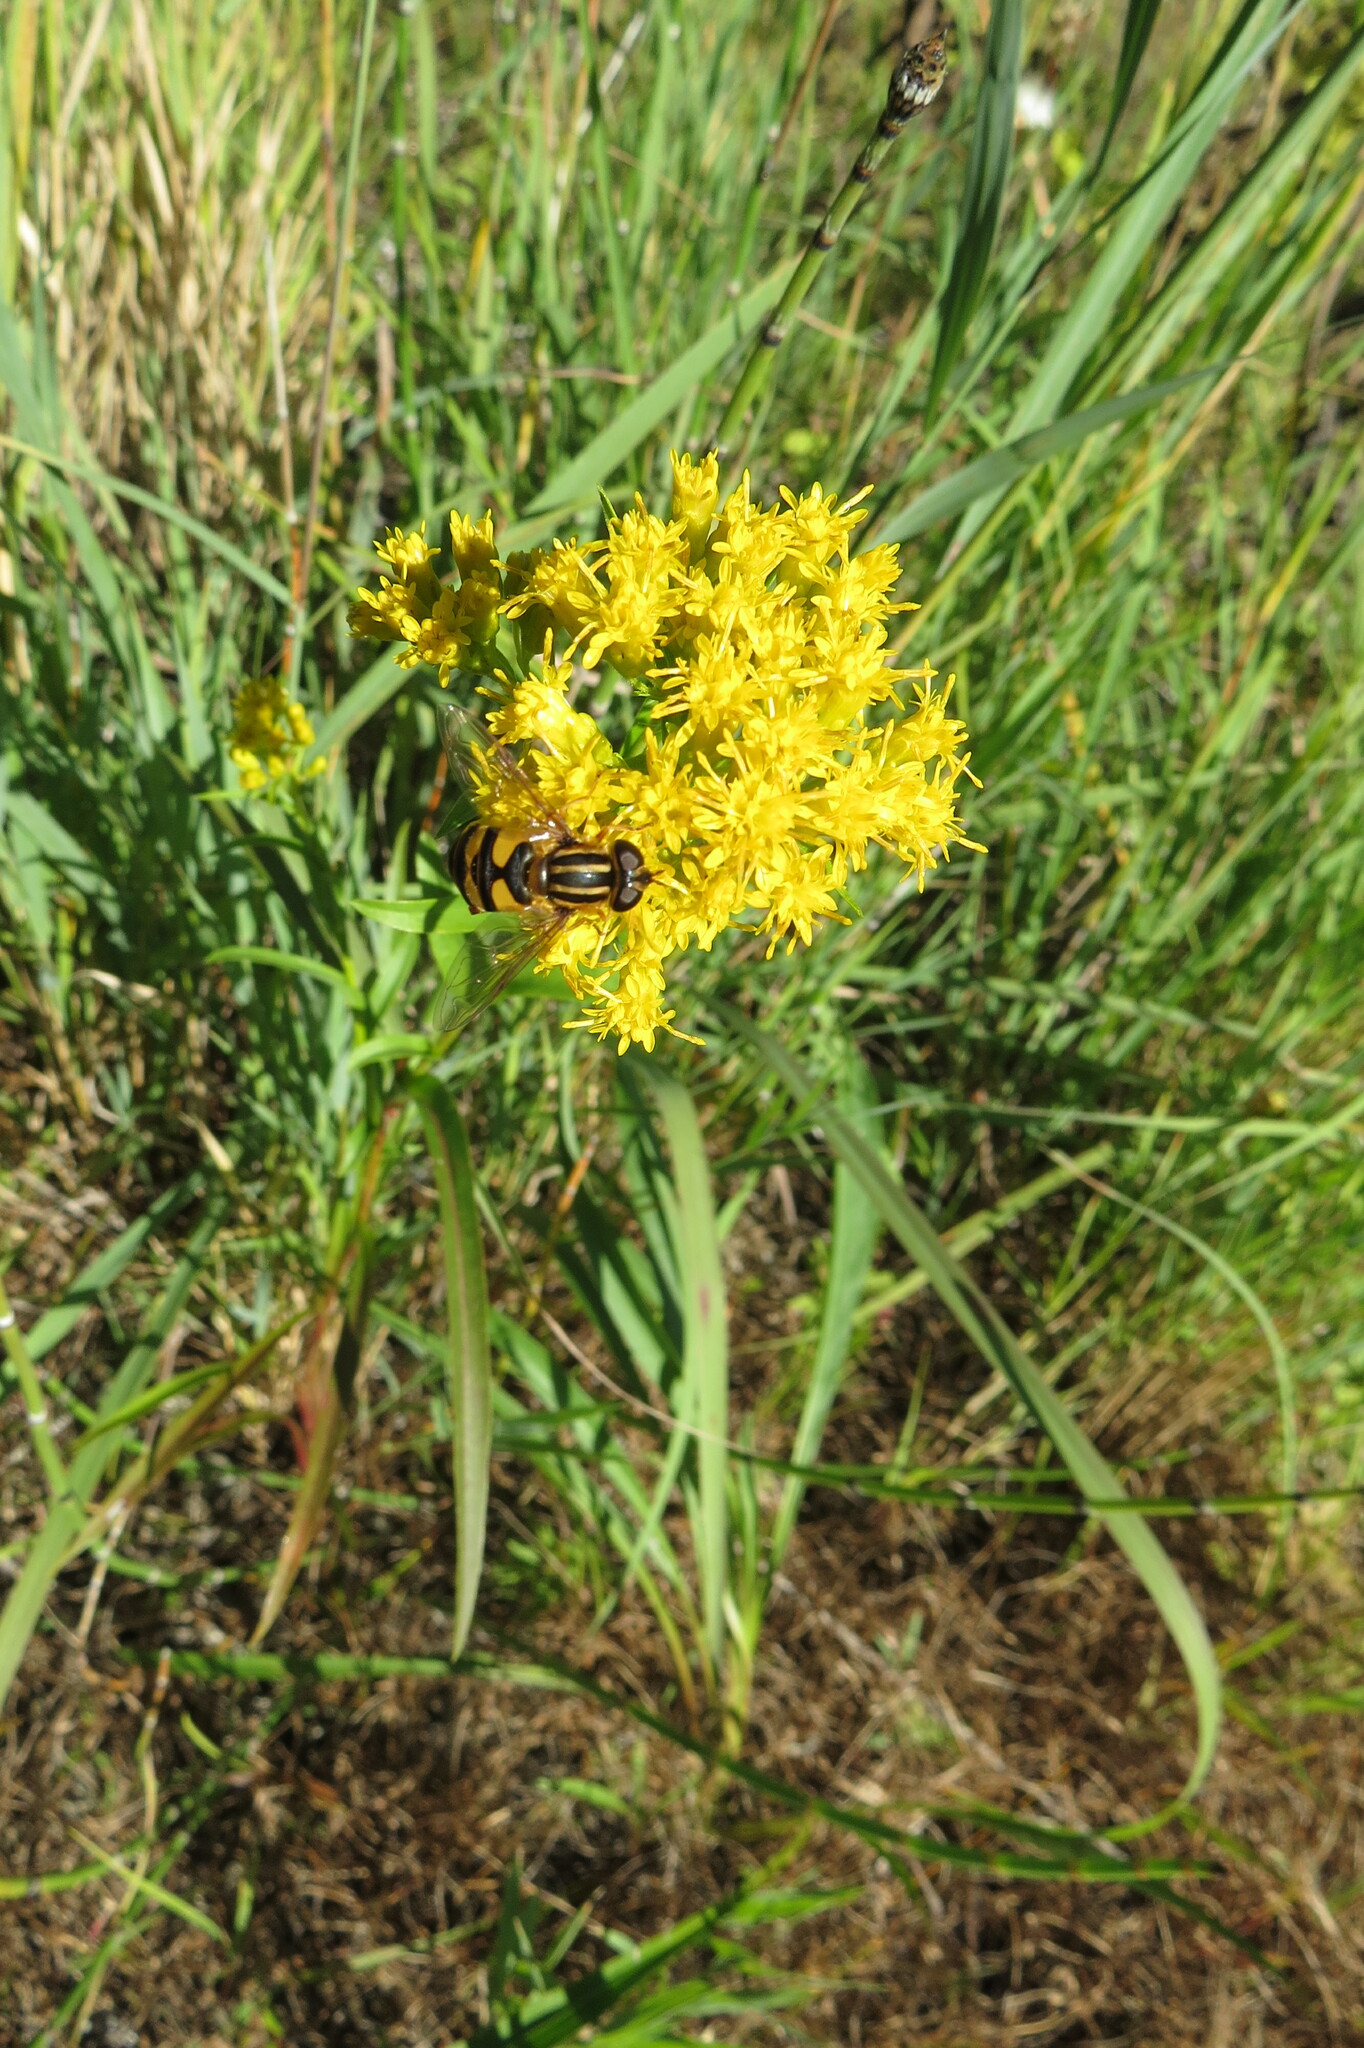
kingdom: Plantae
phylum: Tracheophyta
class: Magnoliopsida
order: Asterales
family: Asteraceae
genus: Solidago
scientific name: Solidago riddellii
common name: Riddell's goldenrod
